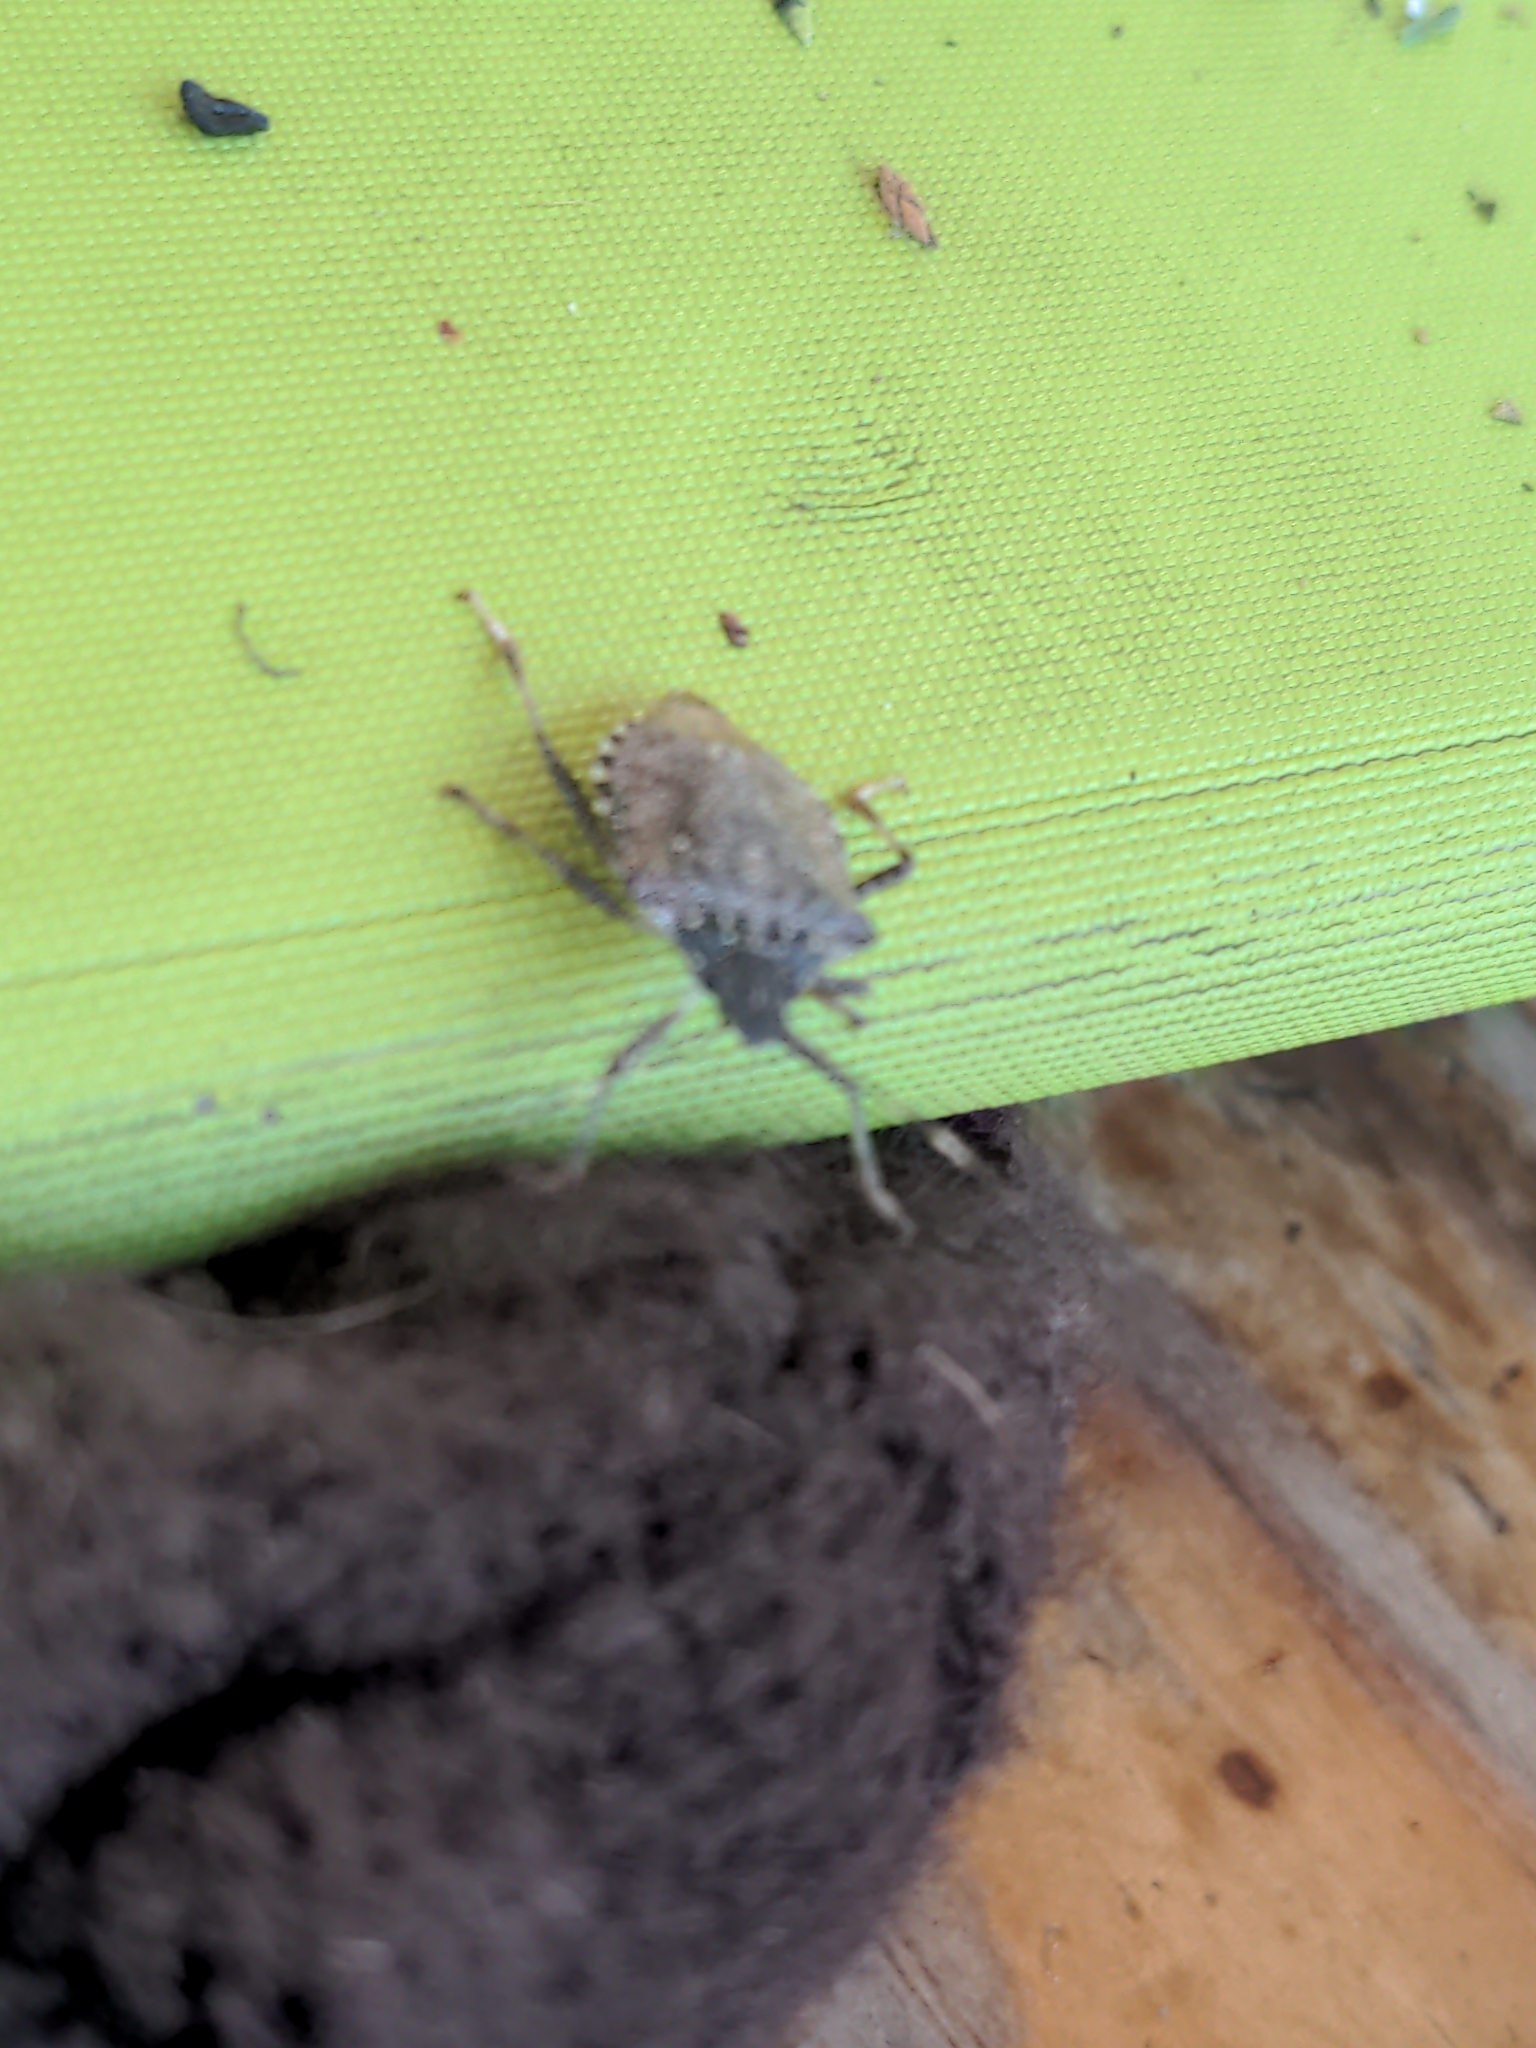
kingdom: Animalia
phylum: Arthropoda
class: Insecta
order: Hemiptera
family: Pentatomidae
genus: Halyomorpha
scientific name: Halyomorpha halys
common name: Brown marmorated stink bug
